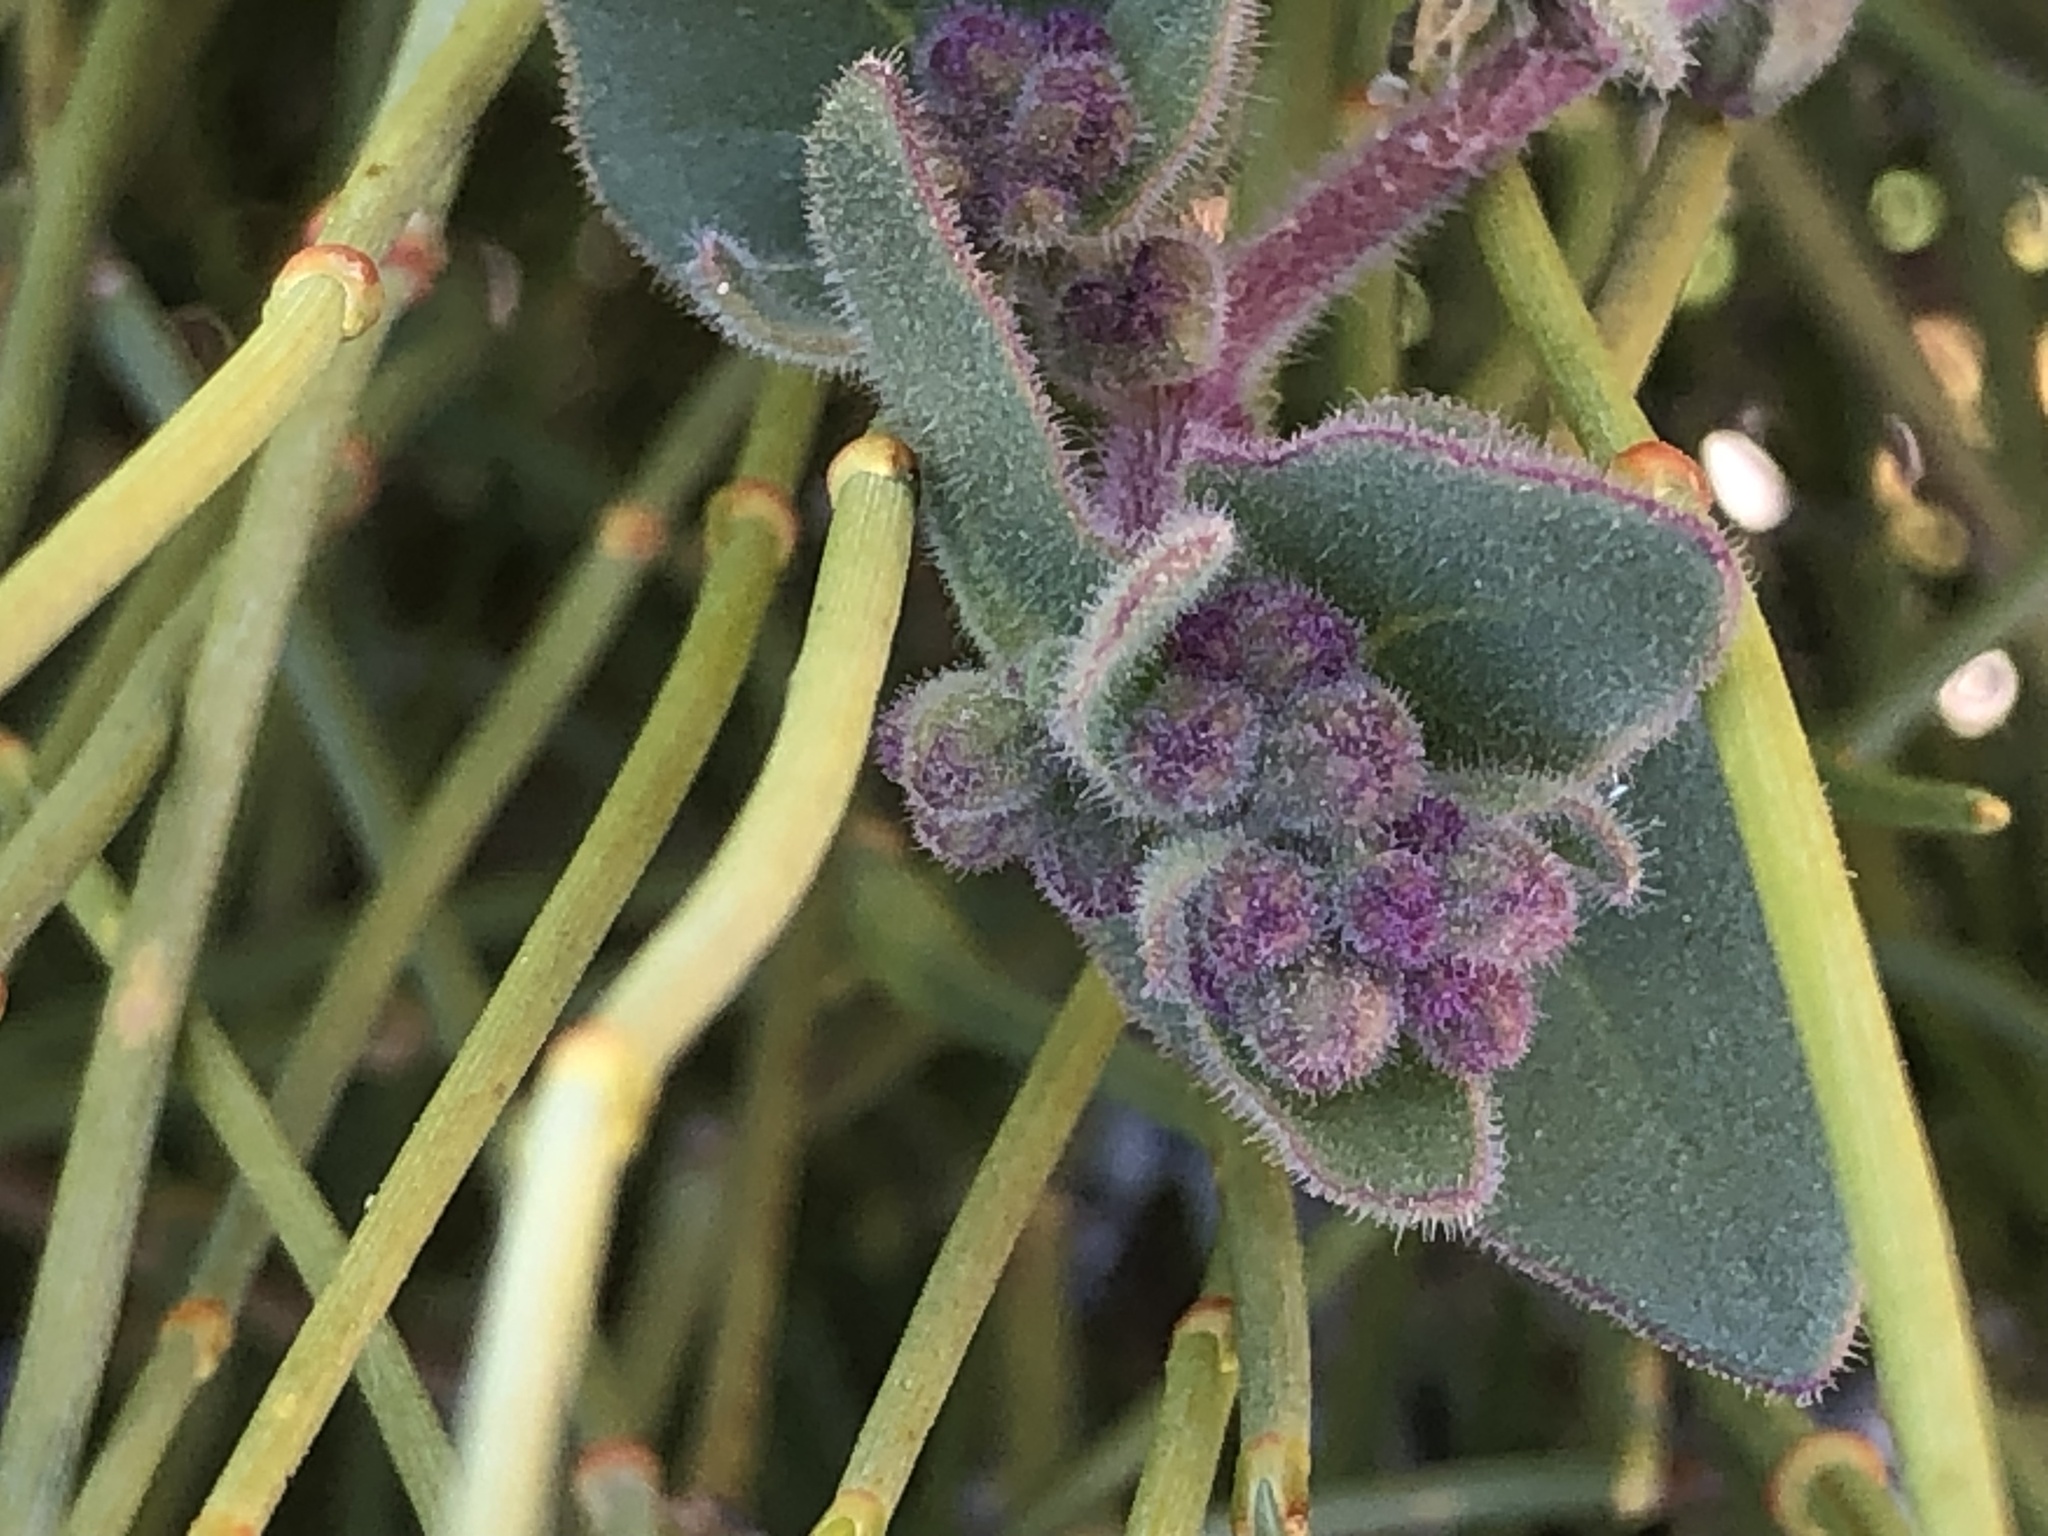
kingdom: Plantae
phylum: Tracheophyta
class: Magnoliopsida
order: Caryophyllales
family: Nyctaginaceae
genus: Mirabilis
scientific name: Mirabilis laevis
